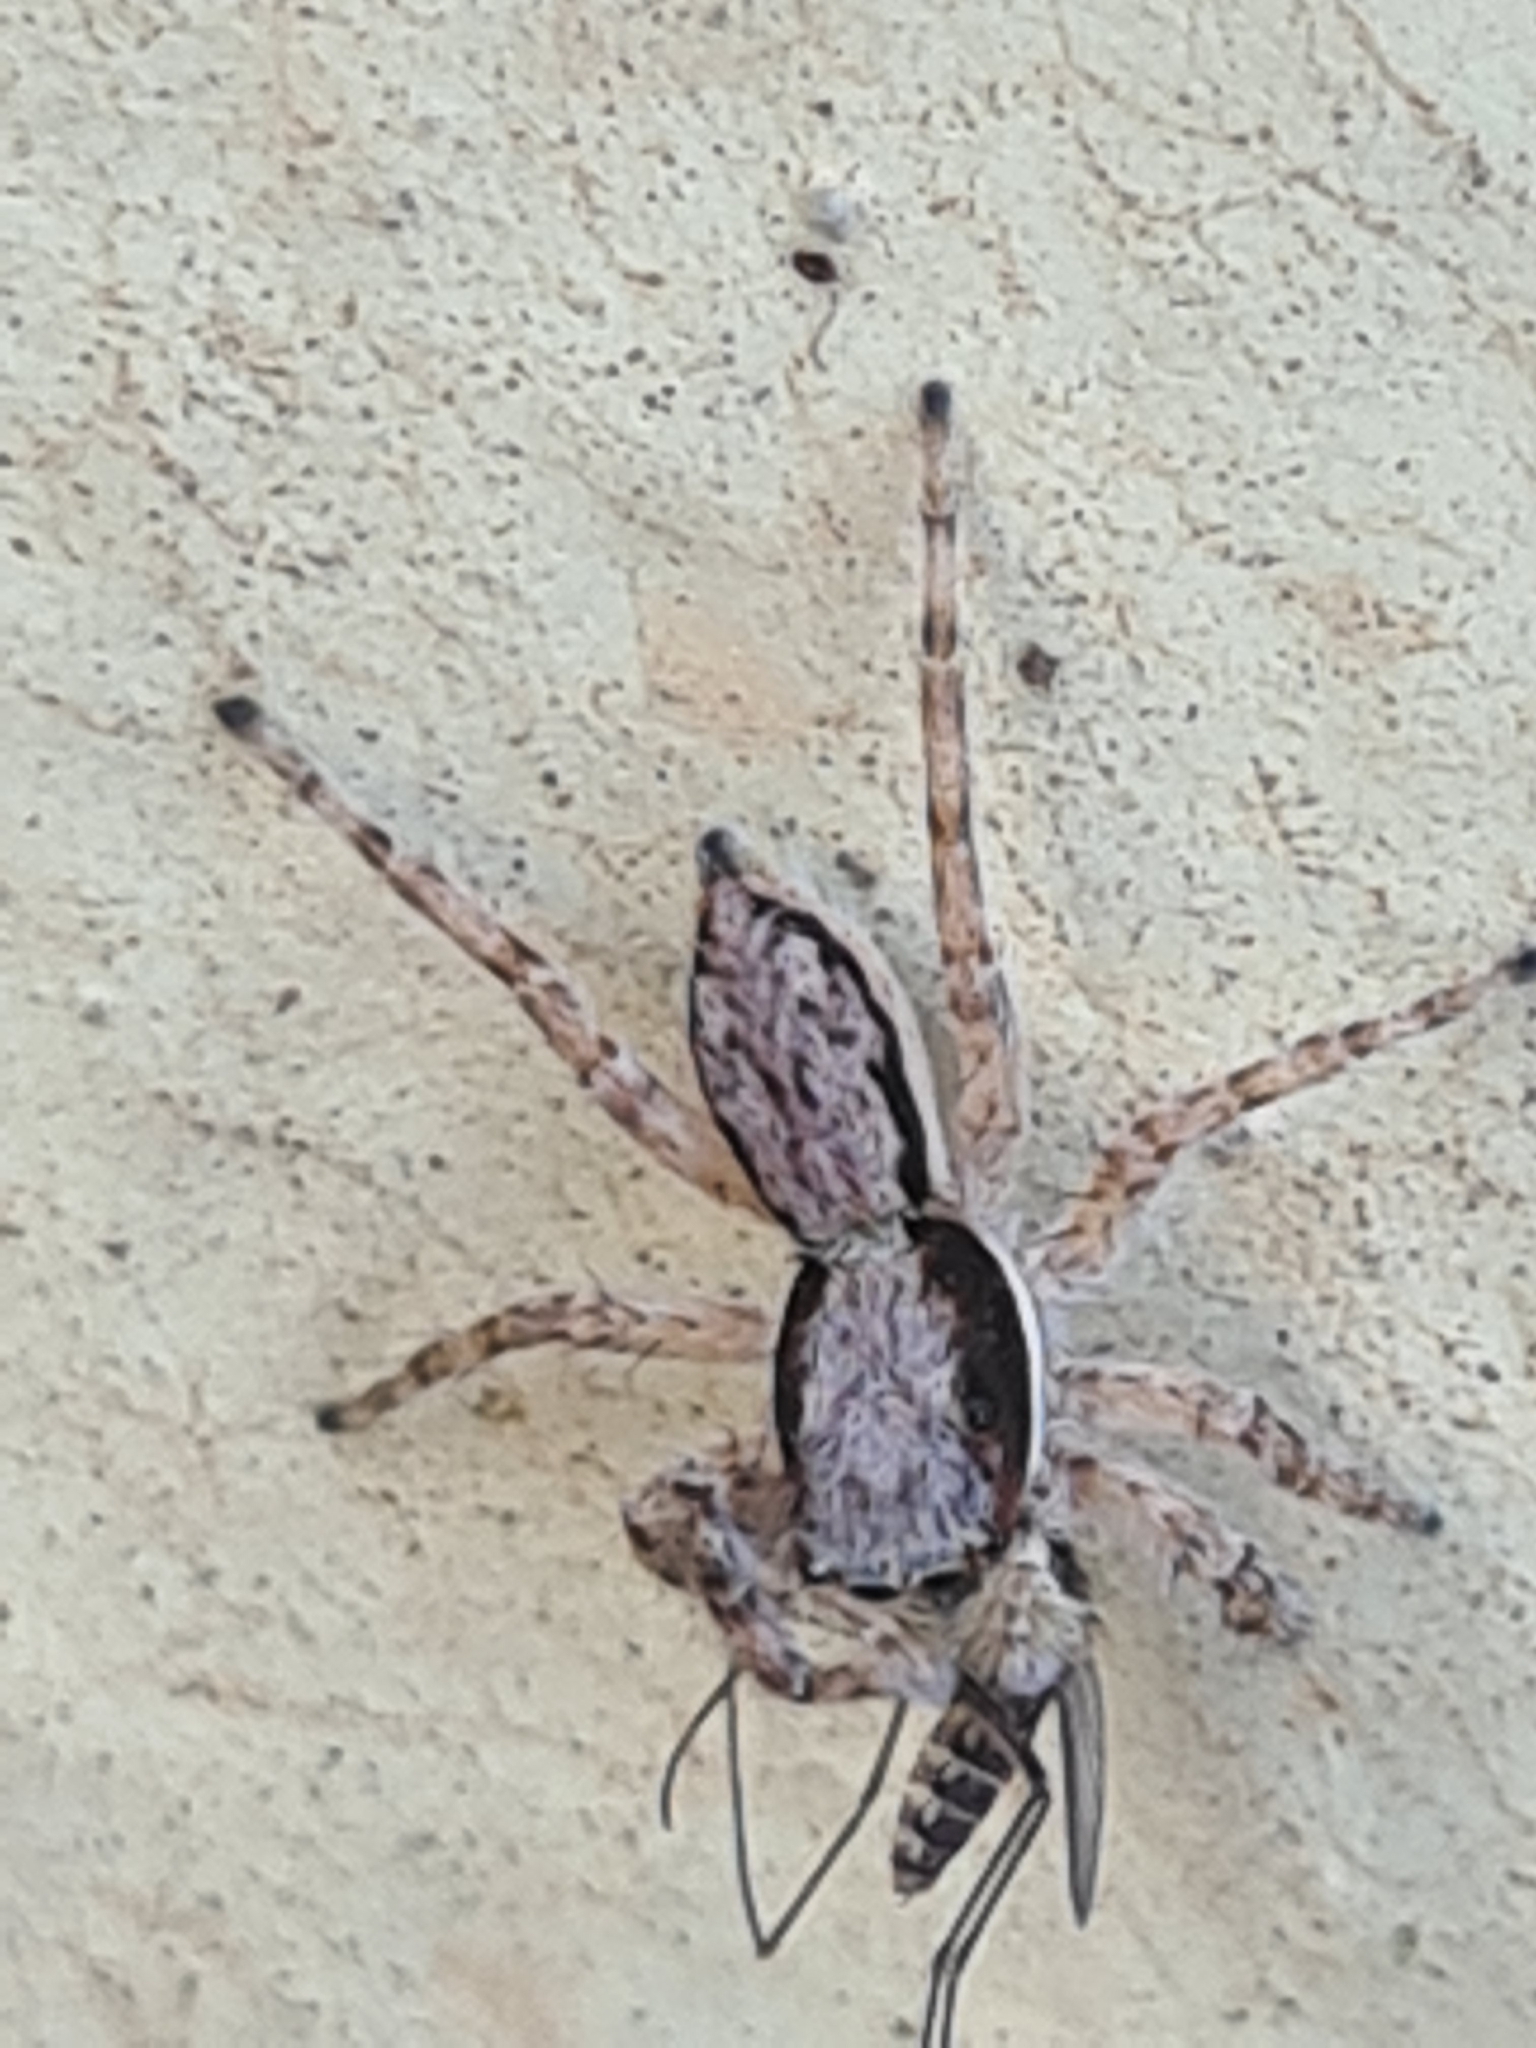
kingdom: Animalia
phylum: Arthropoda
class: Arachnida
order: Araneae
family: Salticidae
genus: Menemerus
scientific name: Menemerus bivittatus
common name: Gray wall jumper
